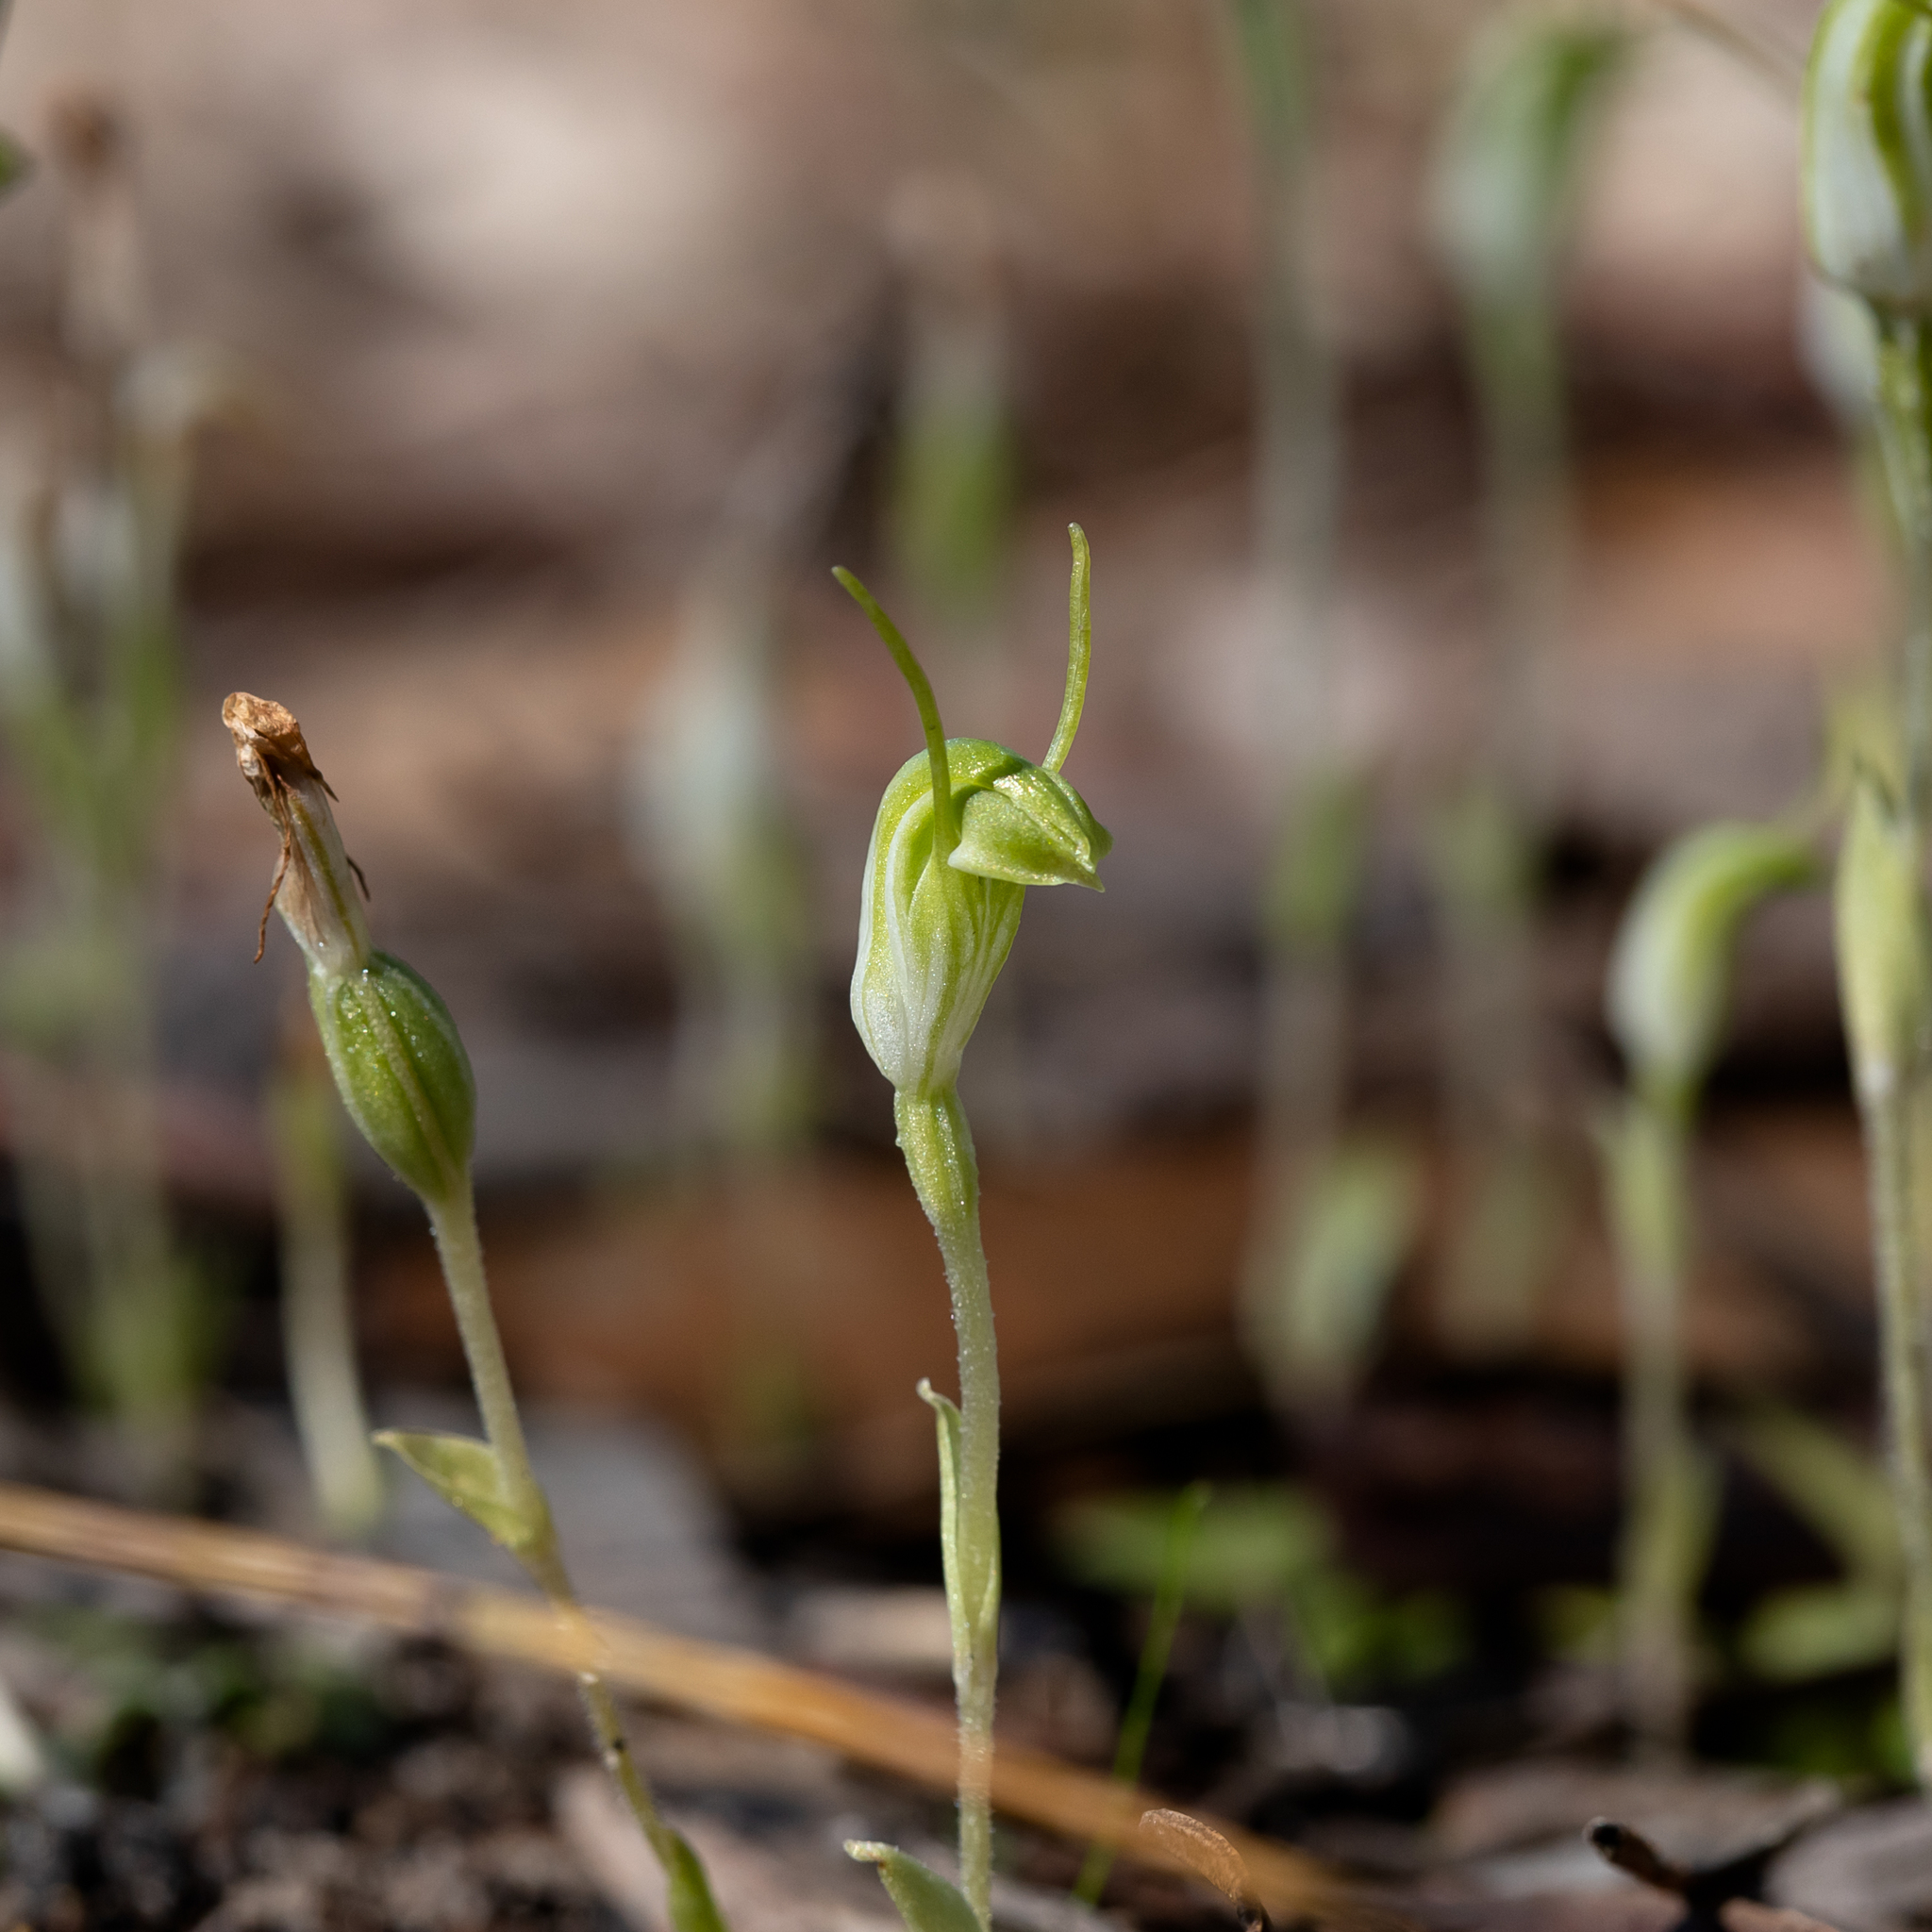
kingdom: Plantae
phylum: Tracheophyta
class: Liliopsida
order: Asparagales
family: Orchidaceae
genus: Pterostylis
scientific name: Pterostylis nana
